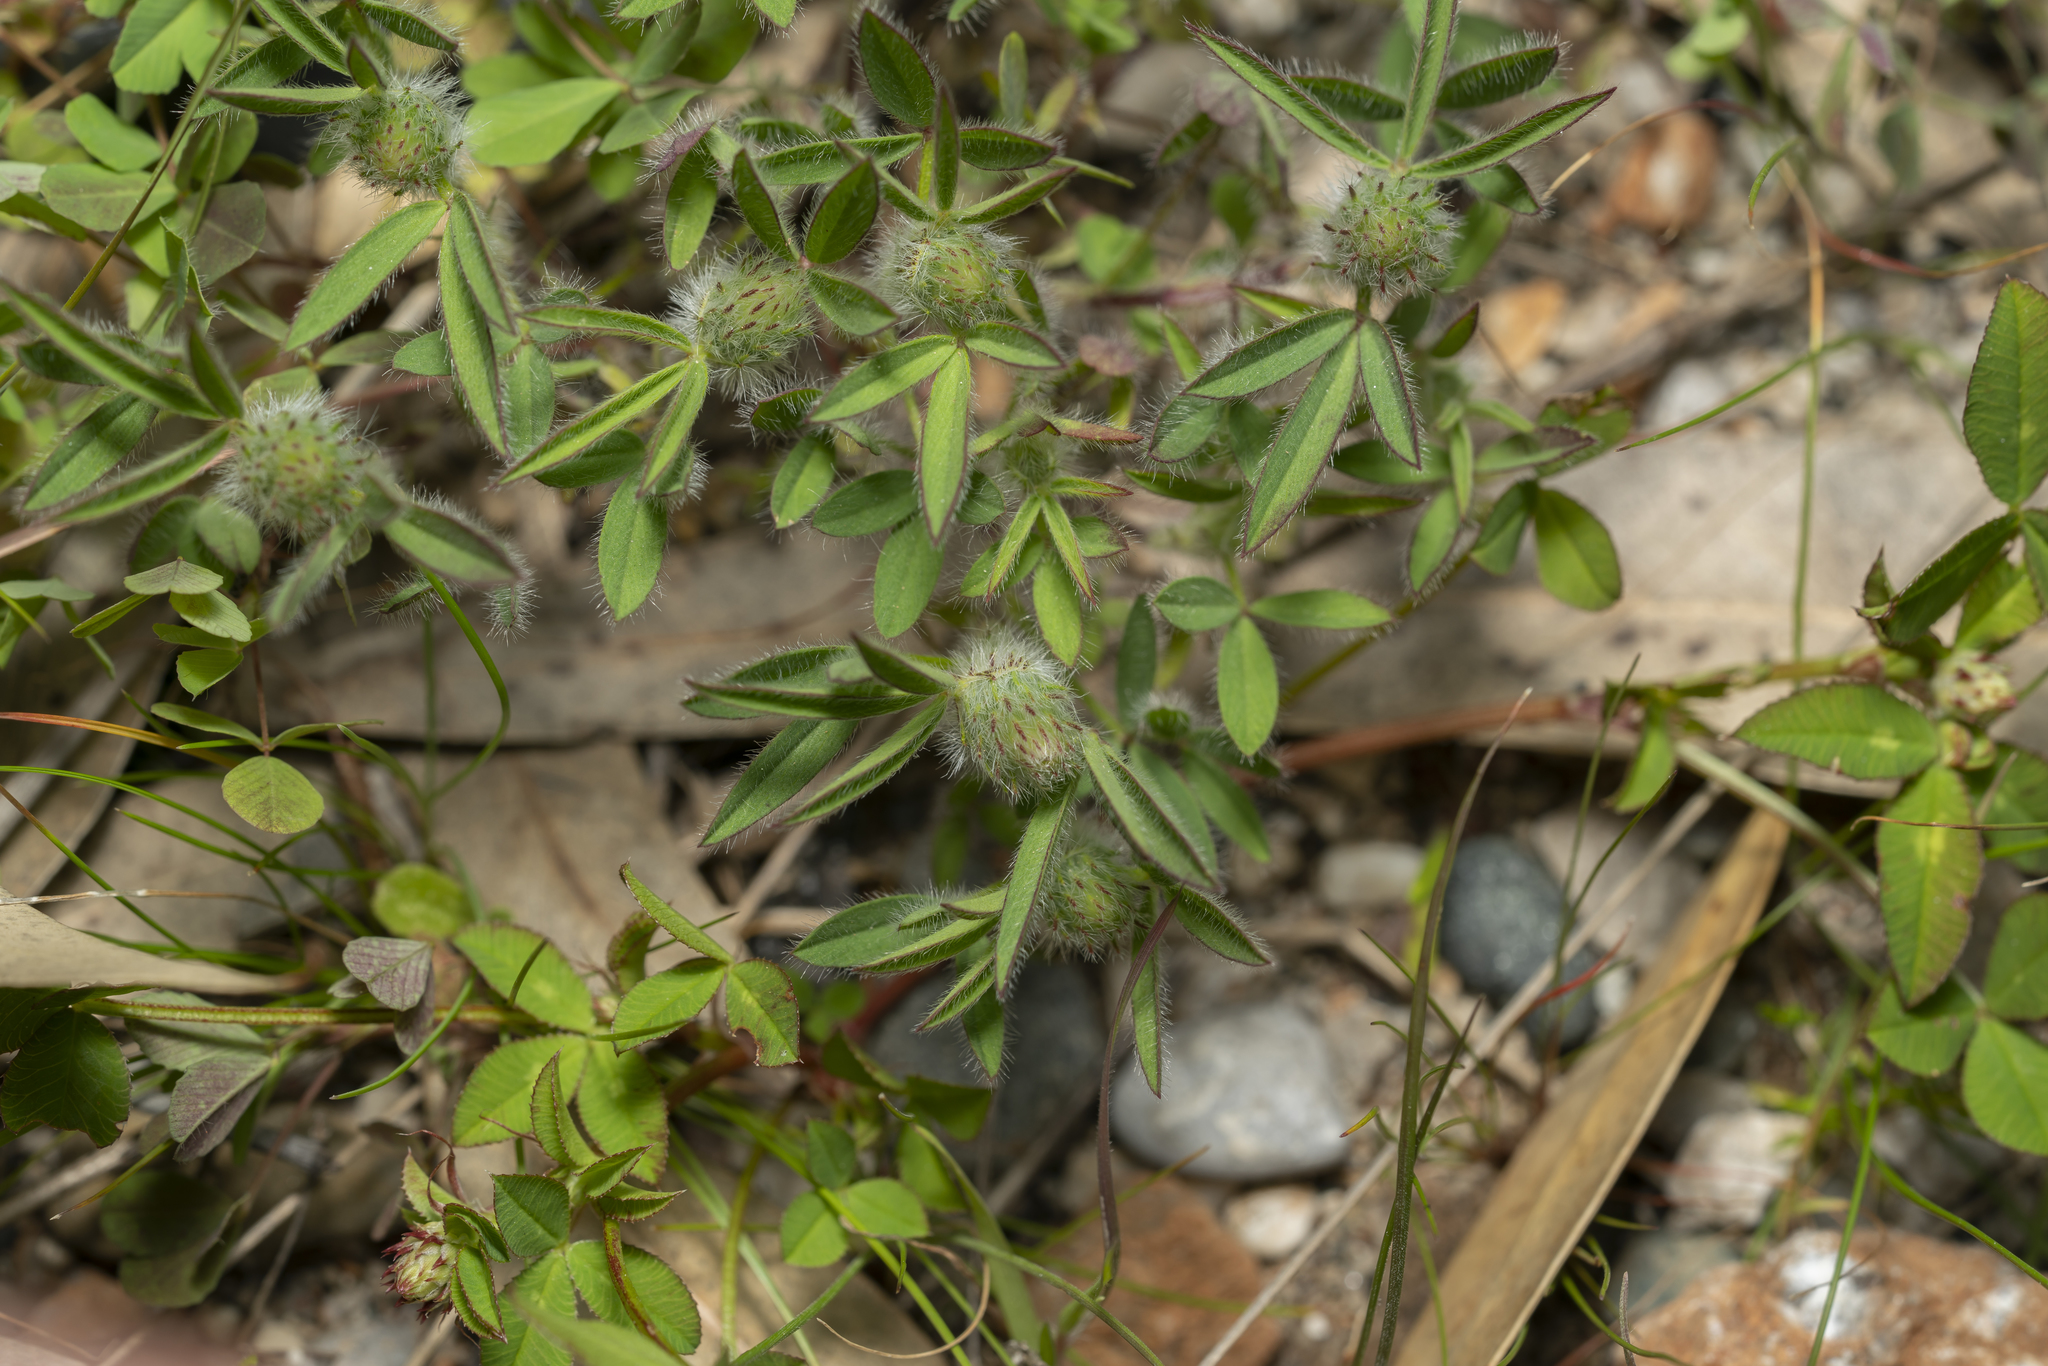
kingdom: Plantae
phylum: Tracheophyta
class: Magnoliopsida
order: Fabales
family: Fabaceae
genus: Trifolium
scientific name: Trifolium
